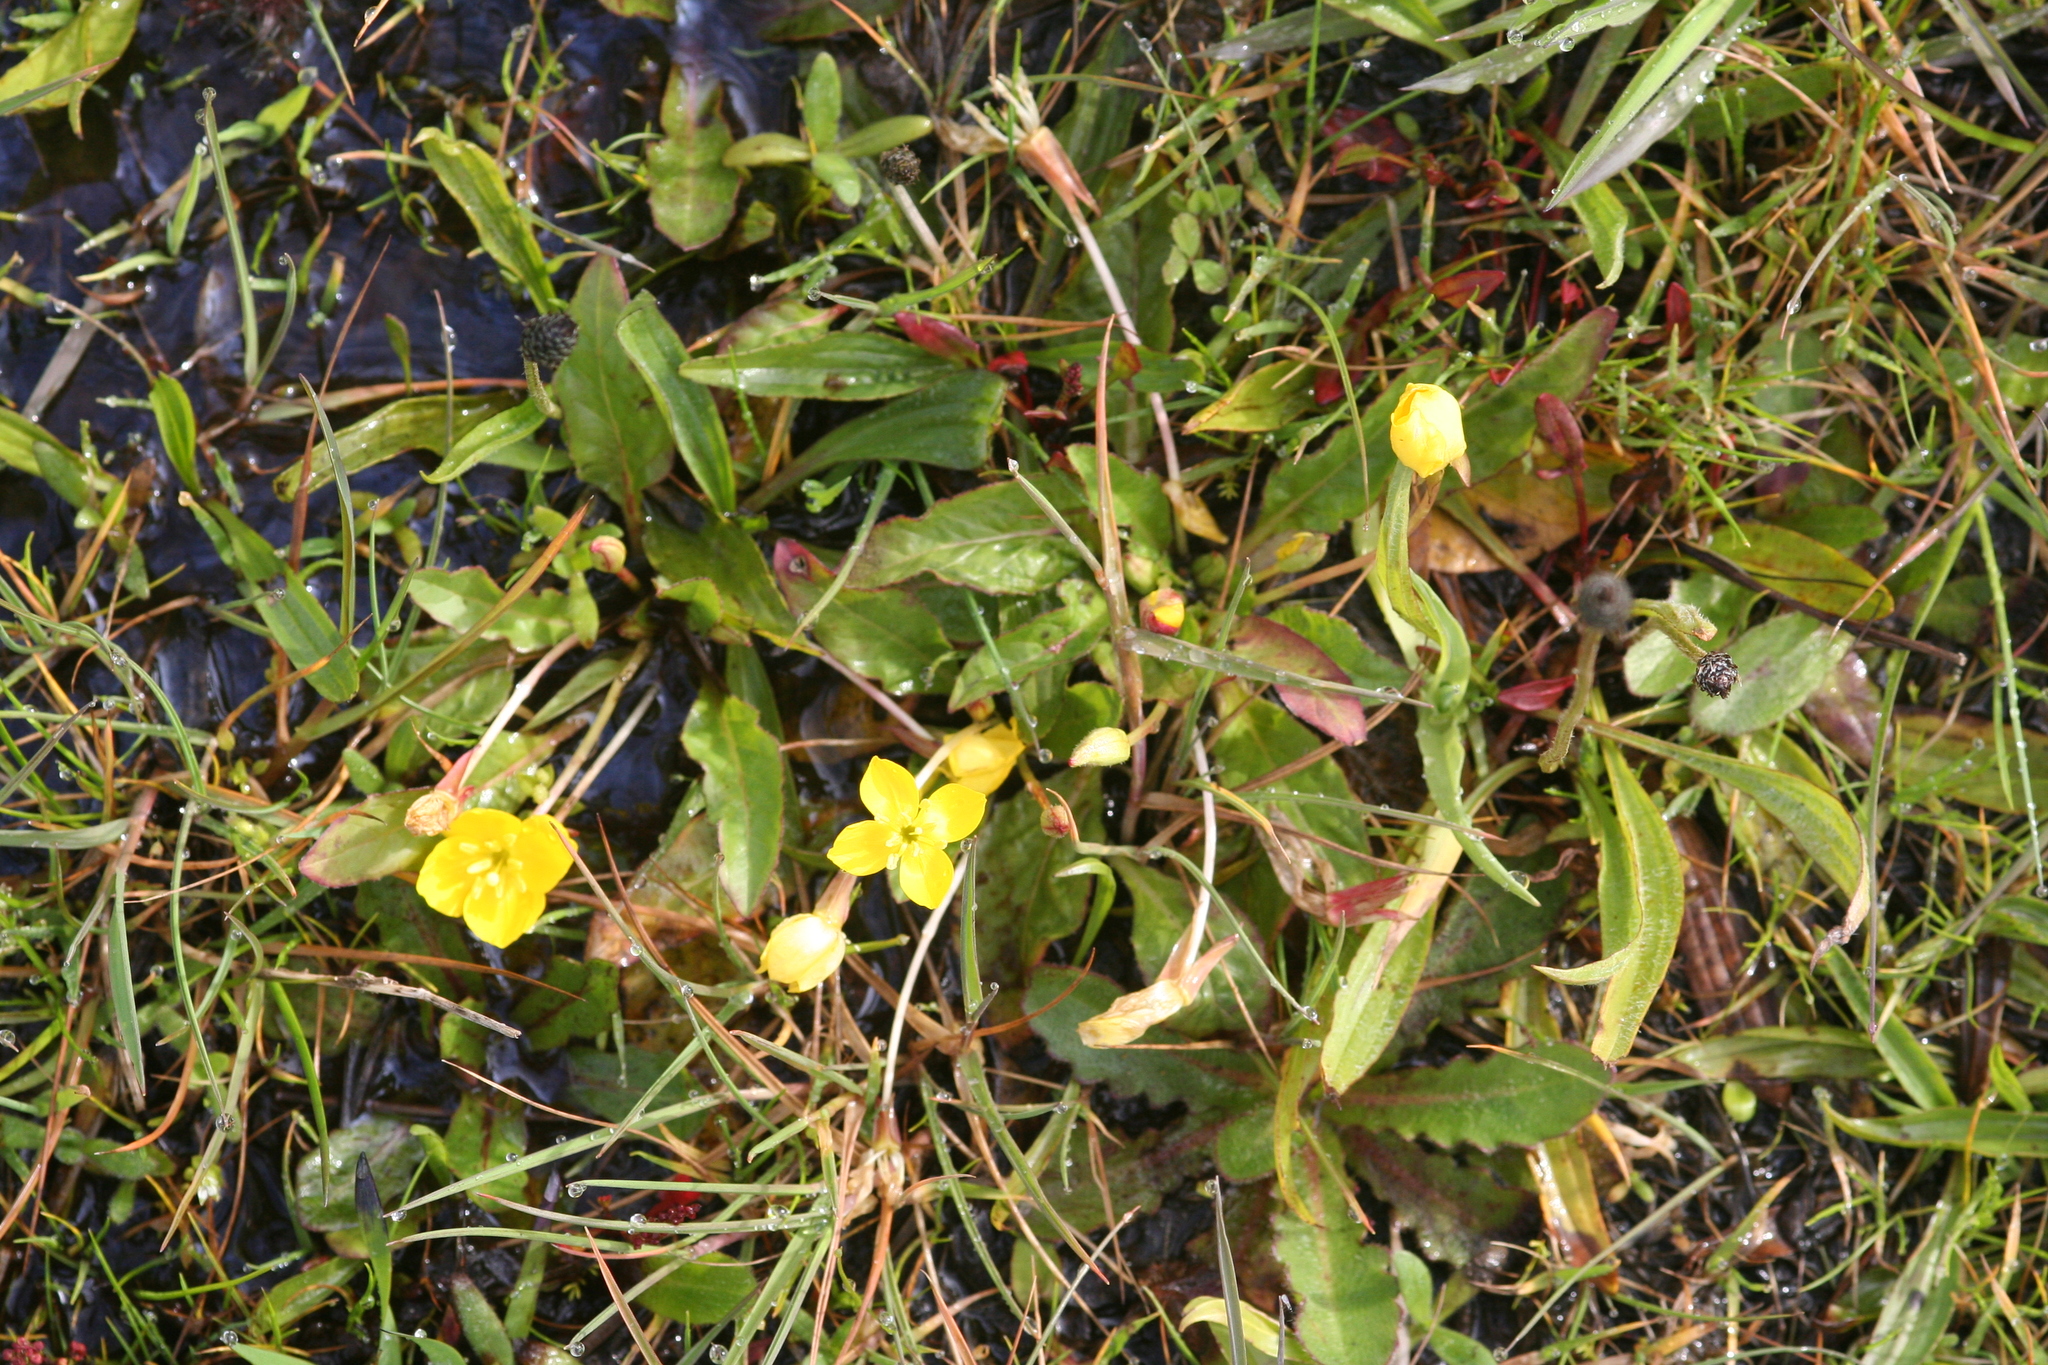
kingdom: Plantae
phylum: Tracheophyta
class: Magnoliopsida
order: Myrtales
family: Onagraceae
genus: Taraxia
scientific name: Taraxia ovata
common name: Goldeneggs
